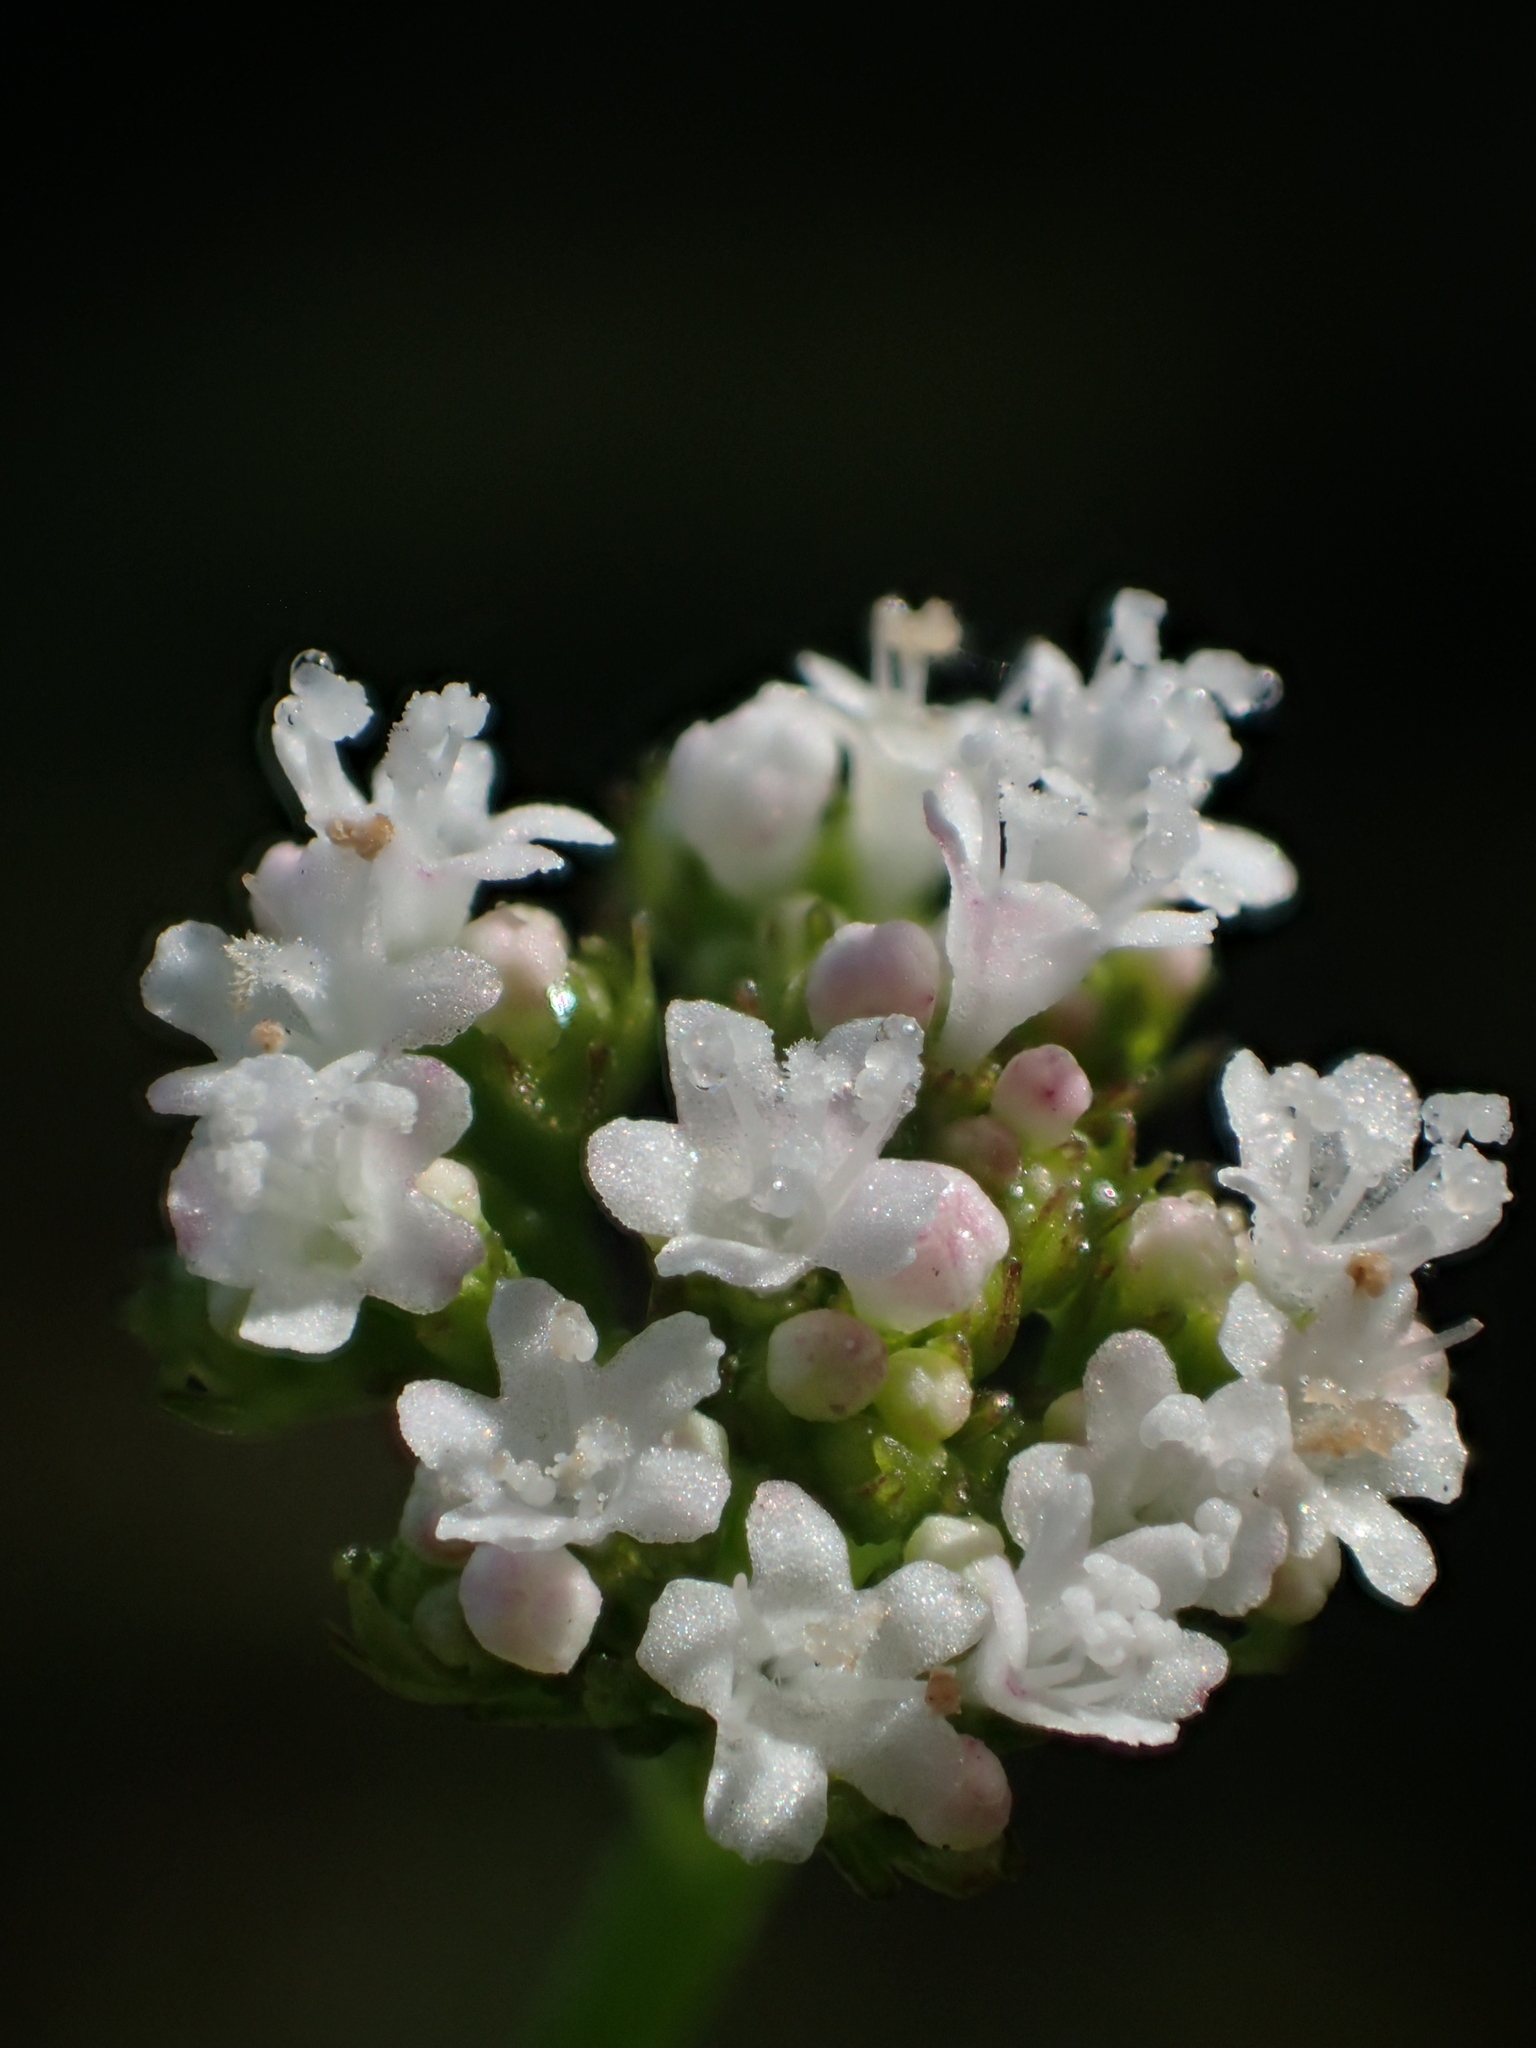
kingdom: Plantae
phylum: Tracheophyta
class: Magnoliopsida
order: Dipsacales
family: Caprifoliaceae
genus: Valeriana
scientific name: Valeriana flaccidissima
